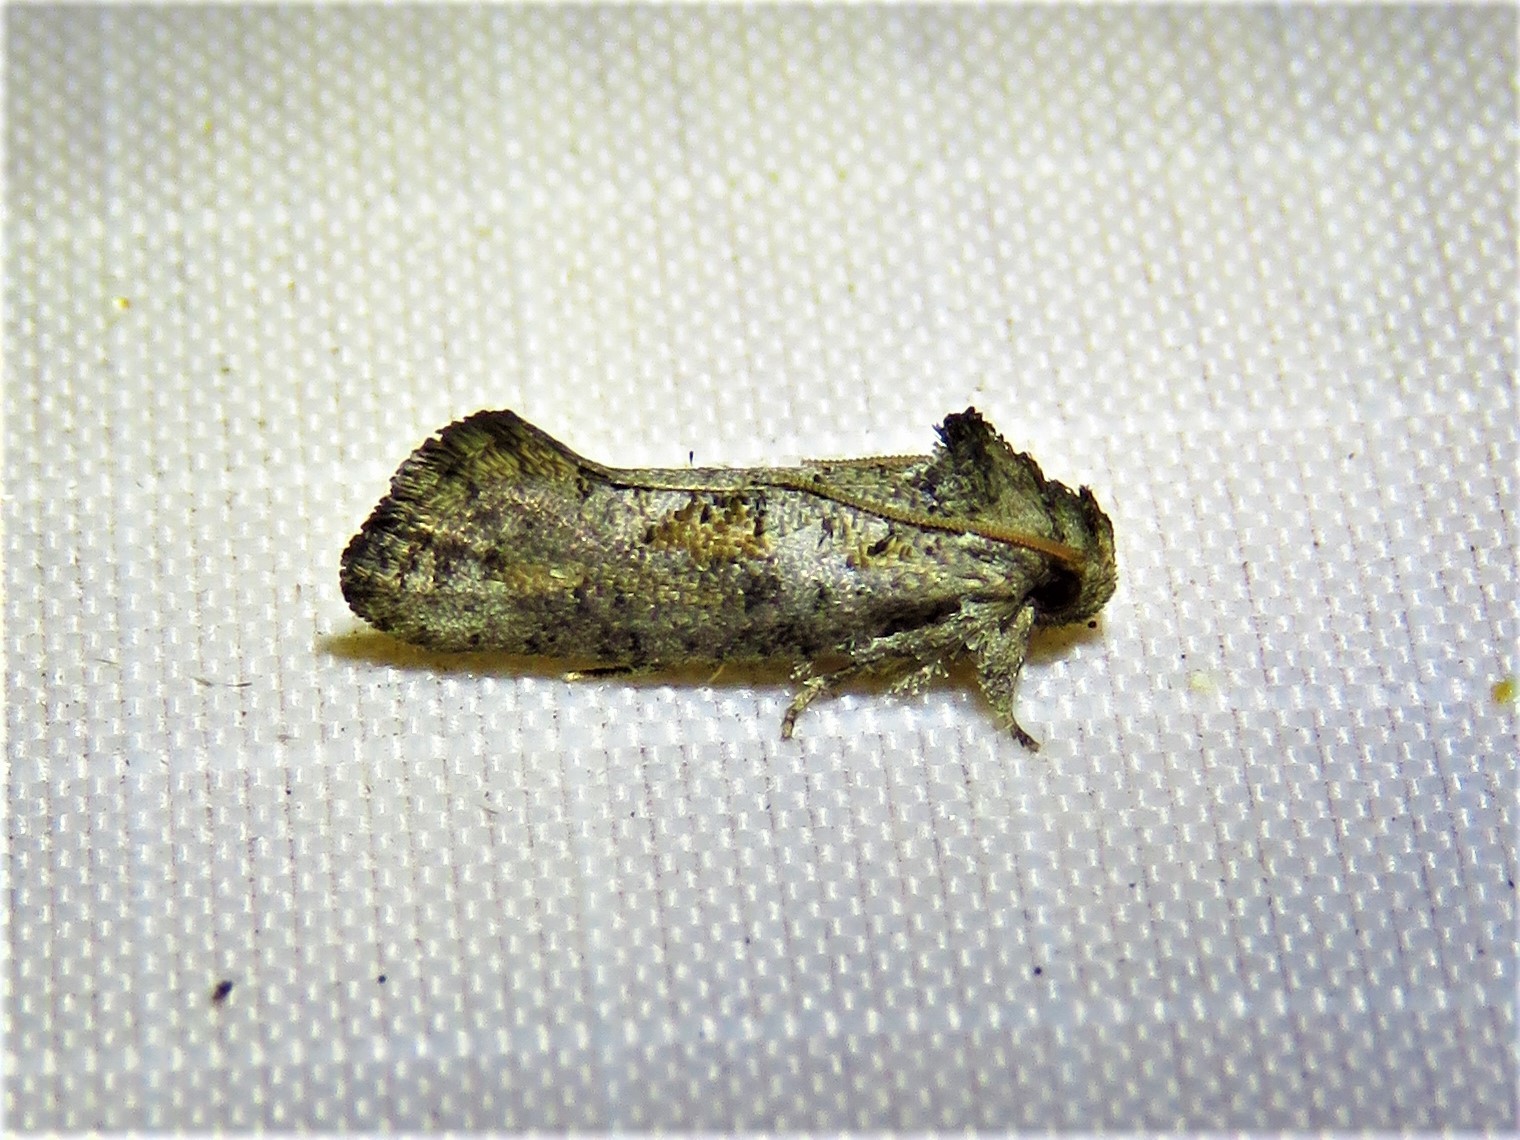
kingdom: Animalia
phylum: Arthropoda
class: Insecta
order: Lepidoptera
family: Tineidae
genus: Acrolophus
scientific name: Acrolophus piger
